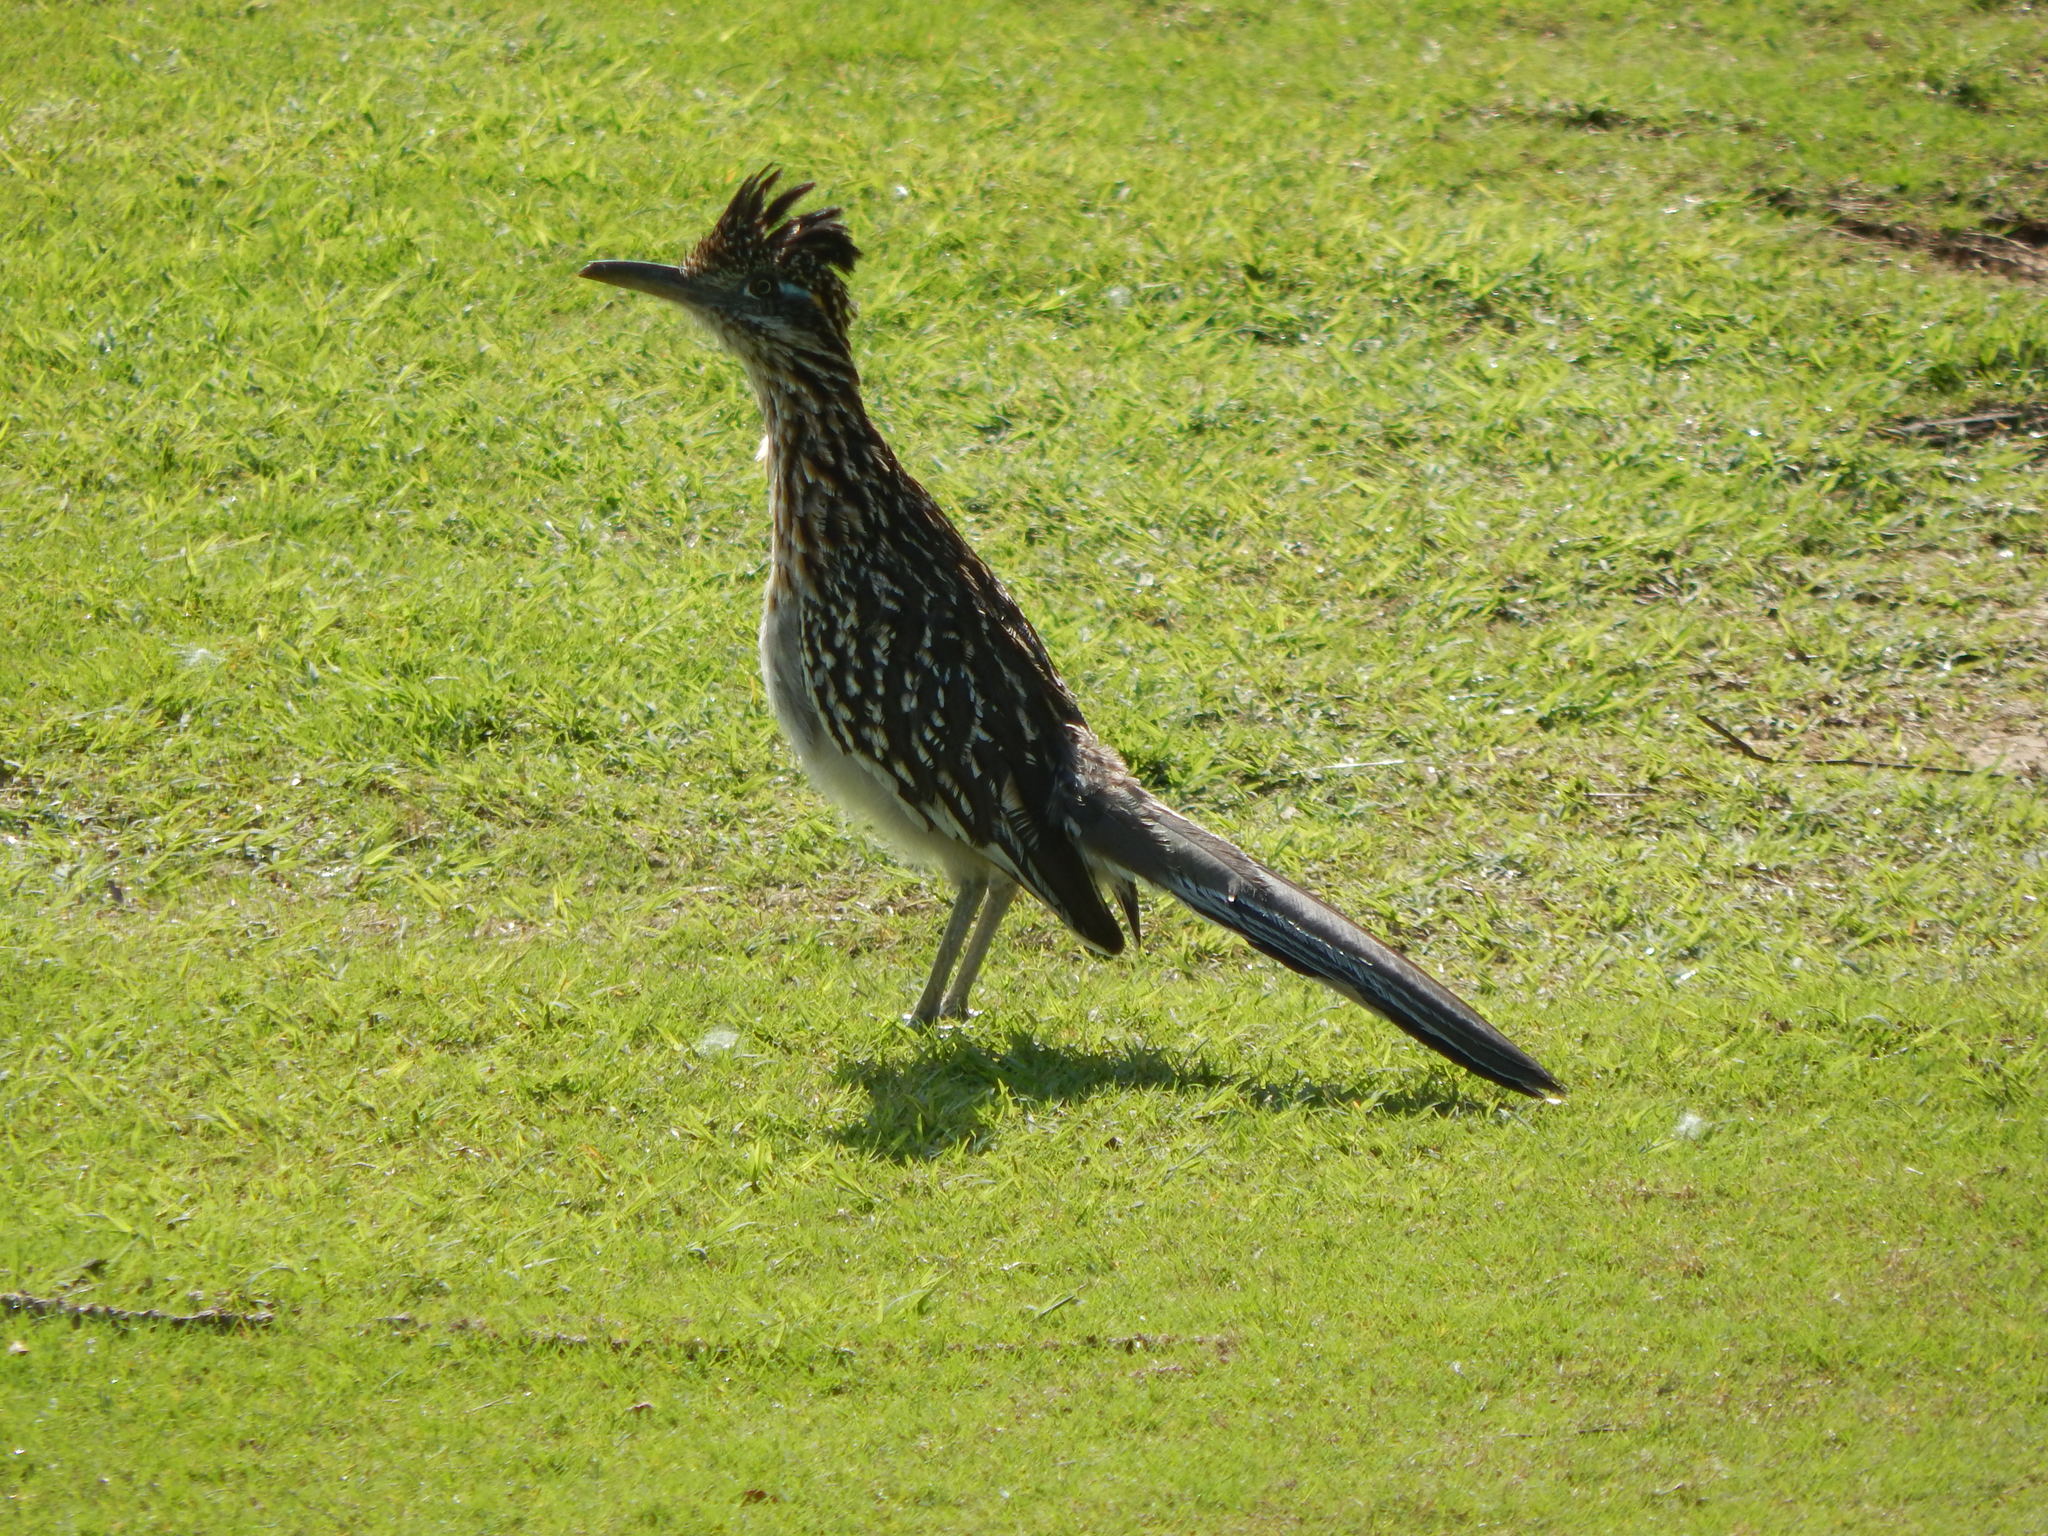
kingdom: Animalia
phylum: Chordata
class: Aves
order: Cuculiformes
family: Cuculidae
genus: Geococcyx
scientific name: Geococcyx californianus
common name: Greater roadrunner
